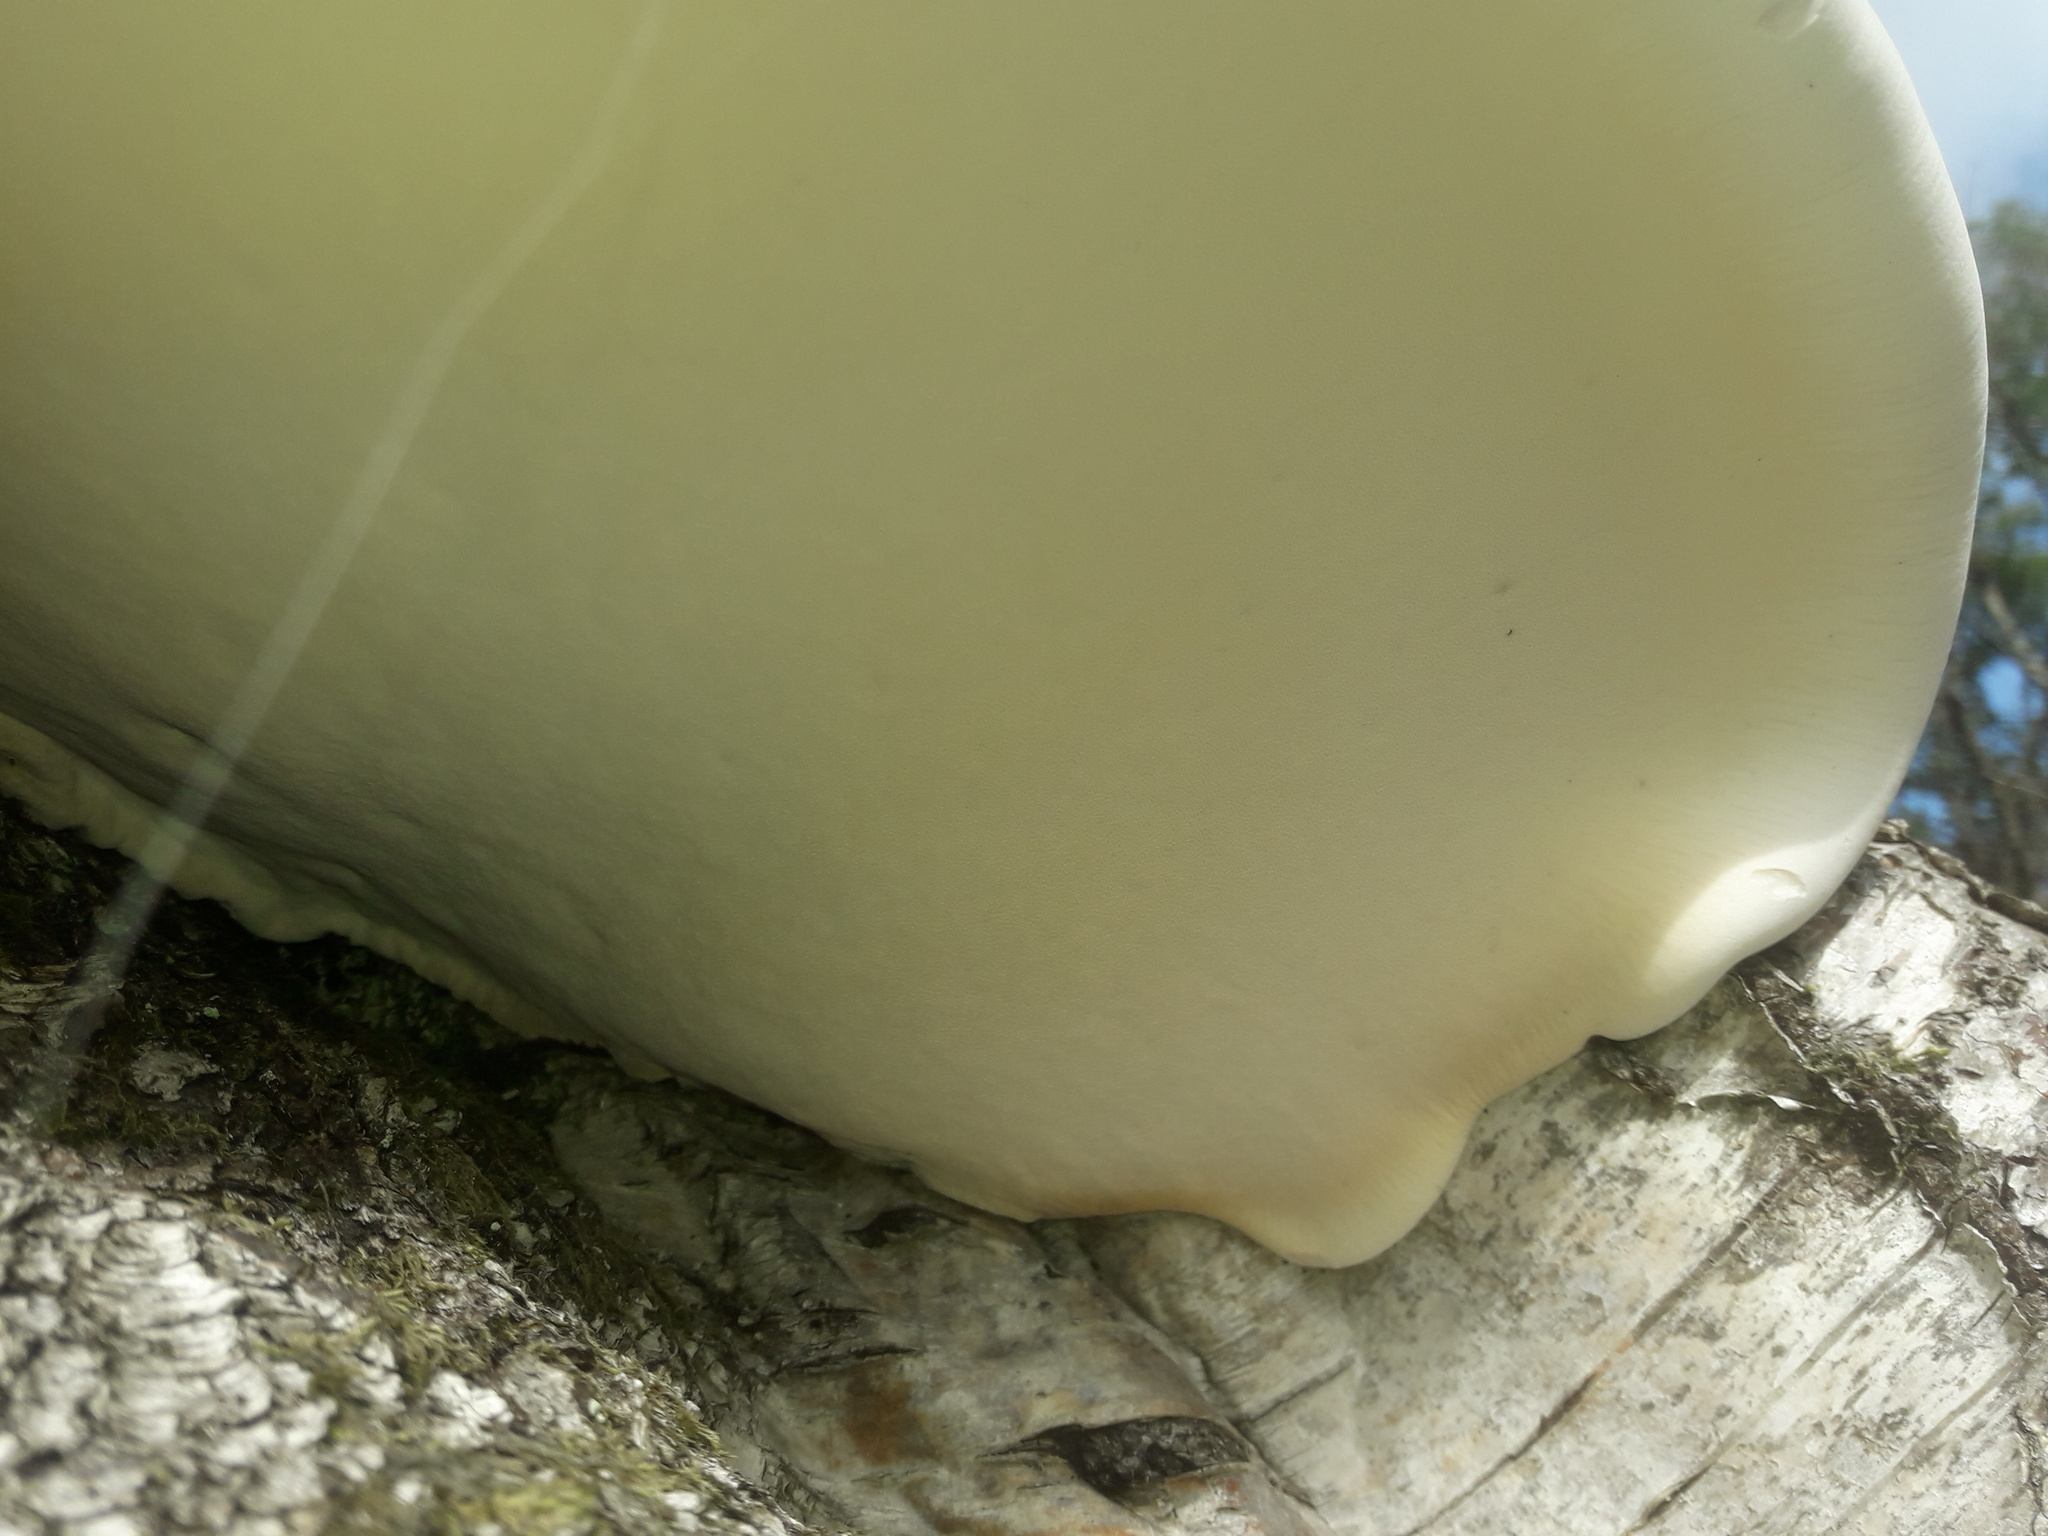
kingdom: Fungi
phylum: Basidiomycota
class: Agaricomycetes
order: Polyporales
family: Fomitopsidaceae
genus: Fomitopsis
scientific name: Fomitopsis betulina
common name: Birch polypore
